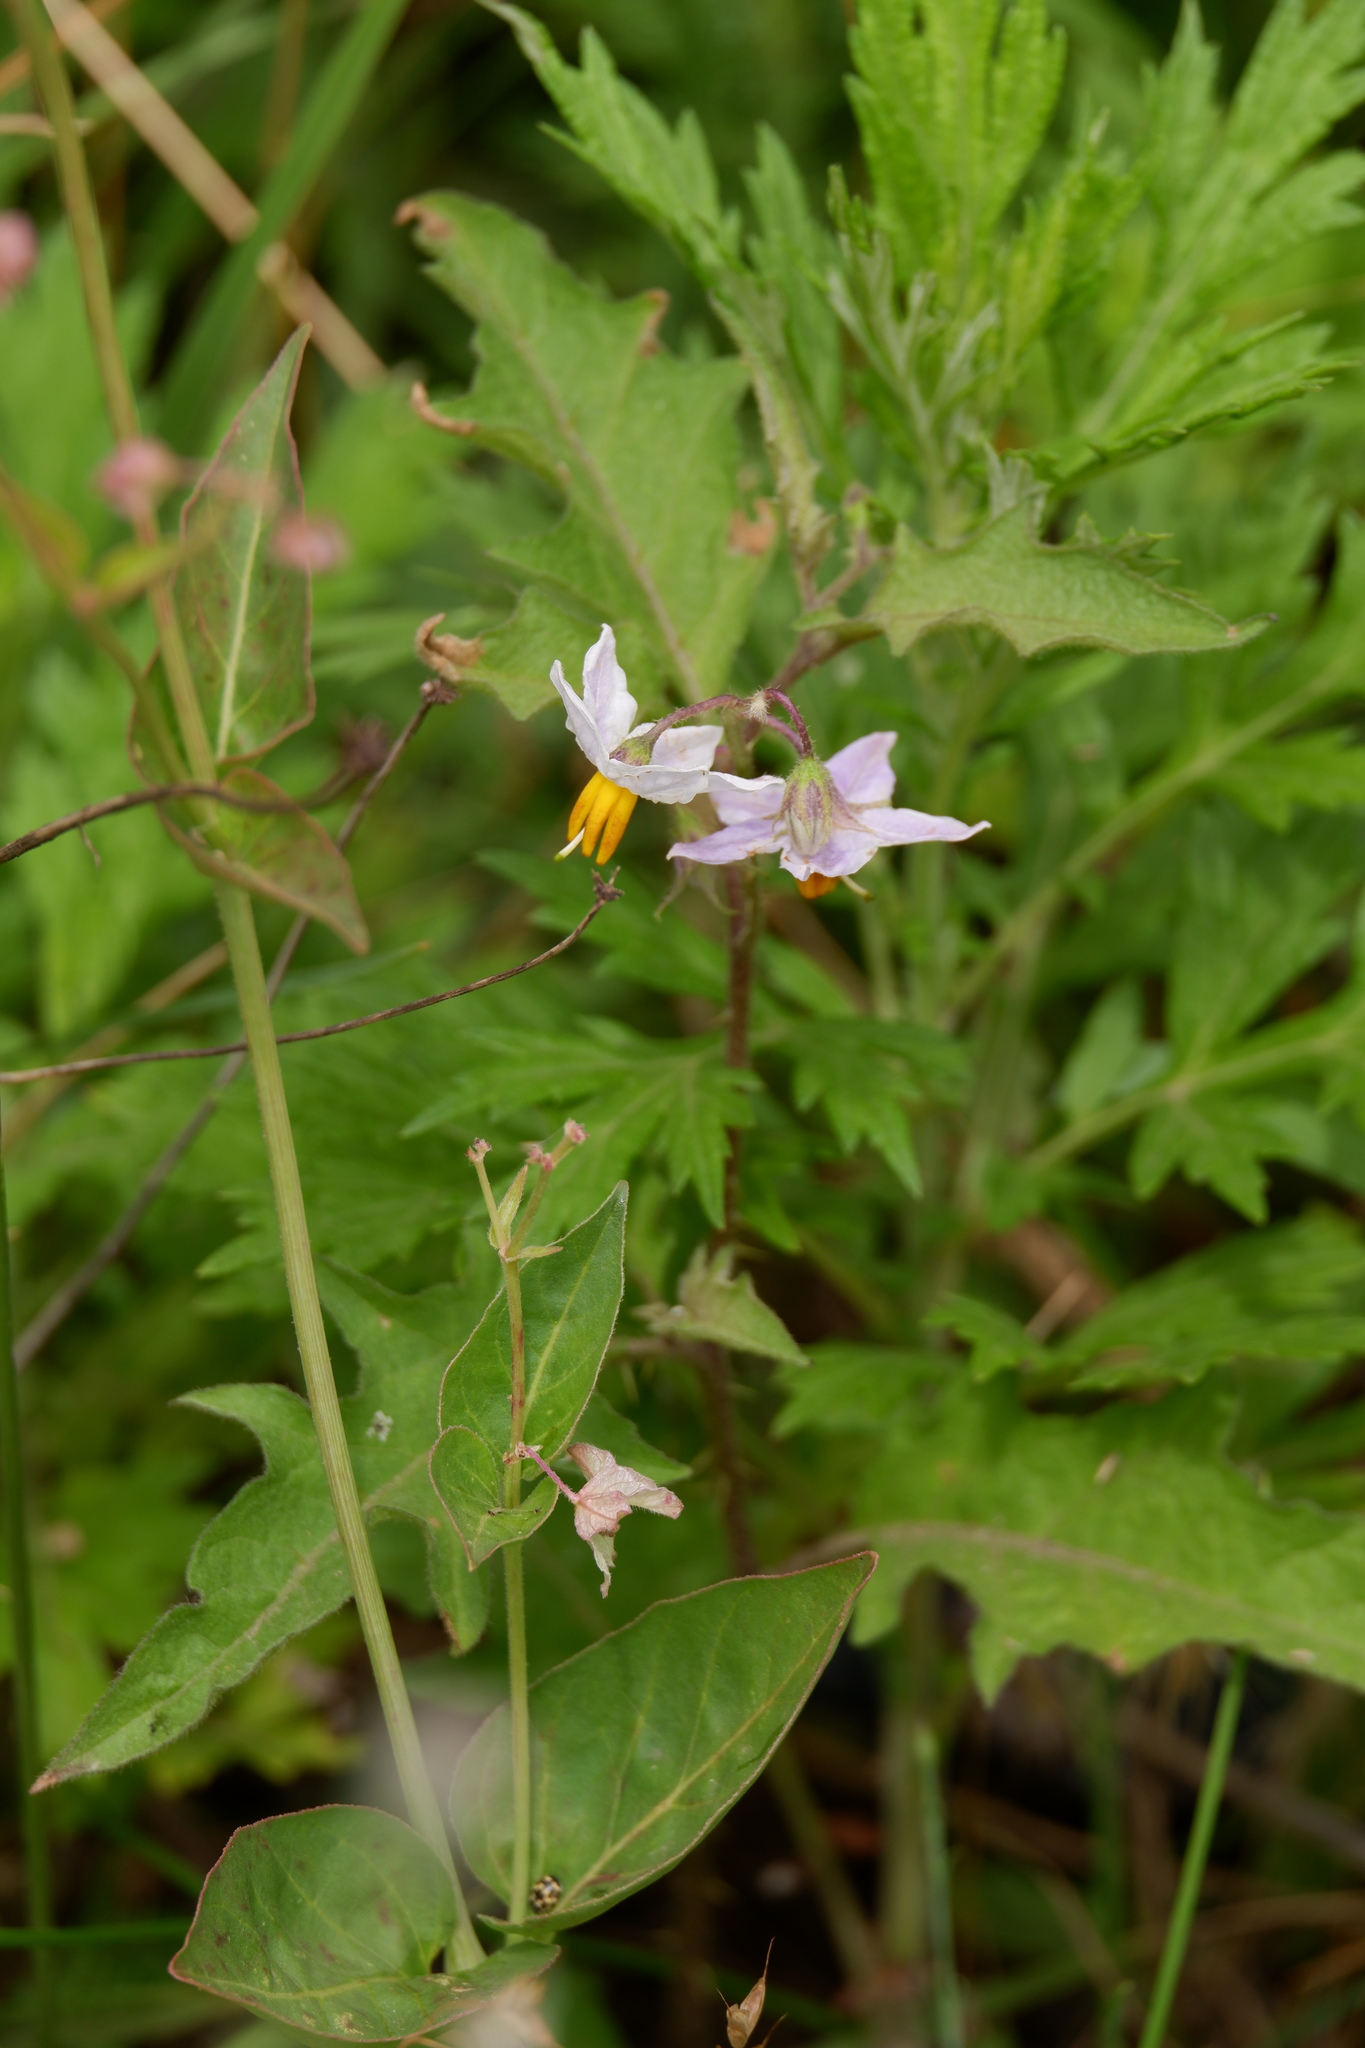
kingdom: Plantae
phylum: Tracheophyta
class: Magnoliopsida
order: Solanales
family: Solanaceae
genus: Solanum
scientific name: Solanum carolinense
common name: Horse-nettle
